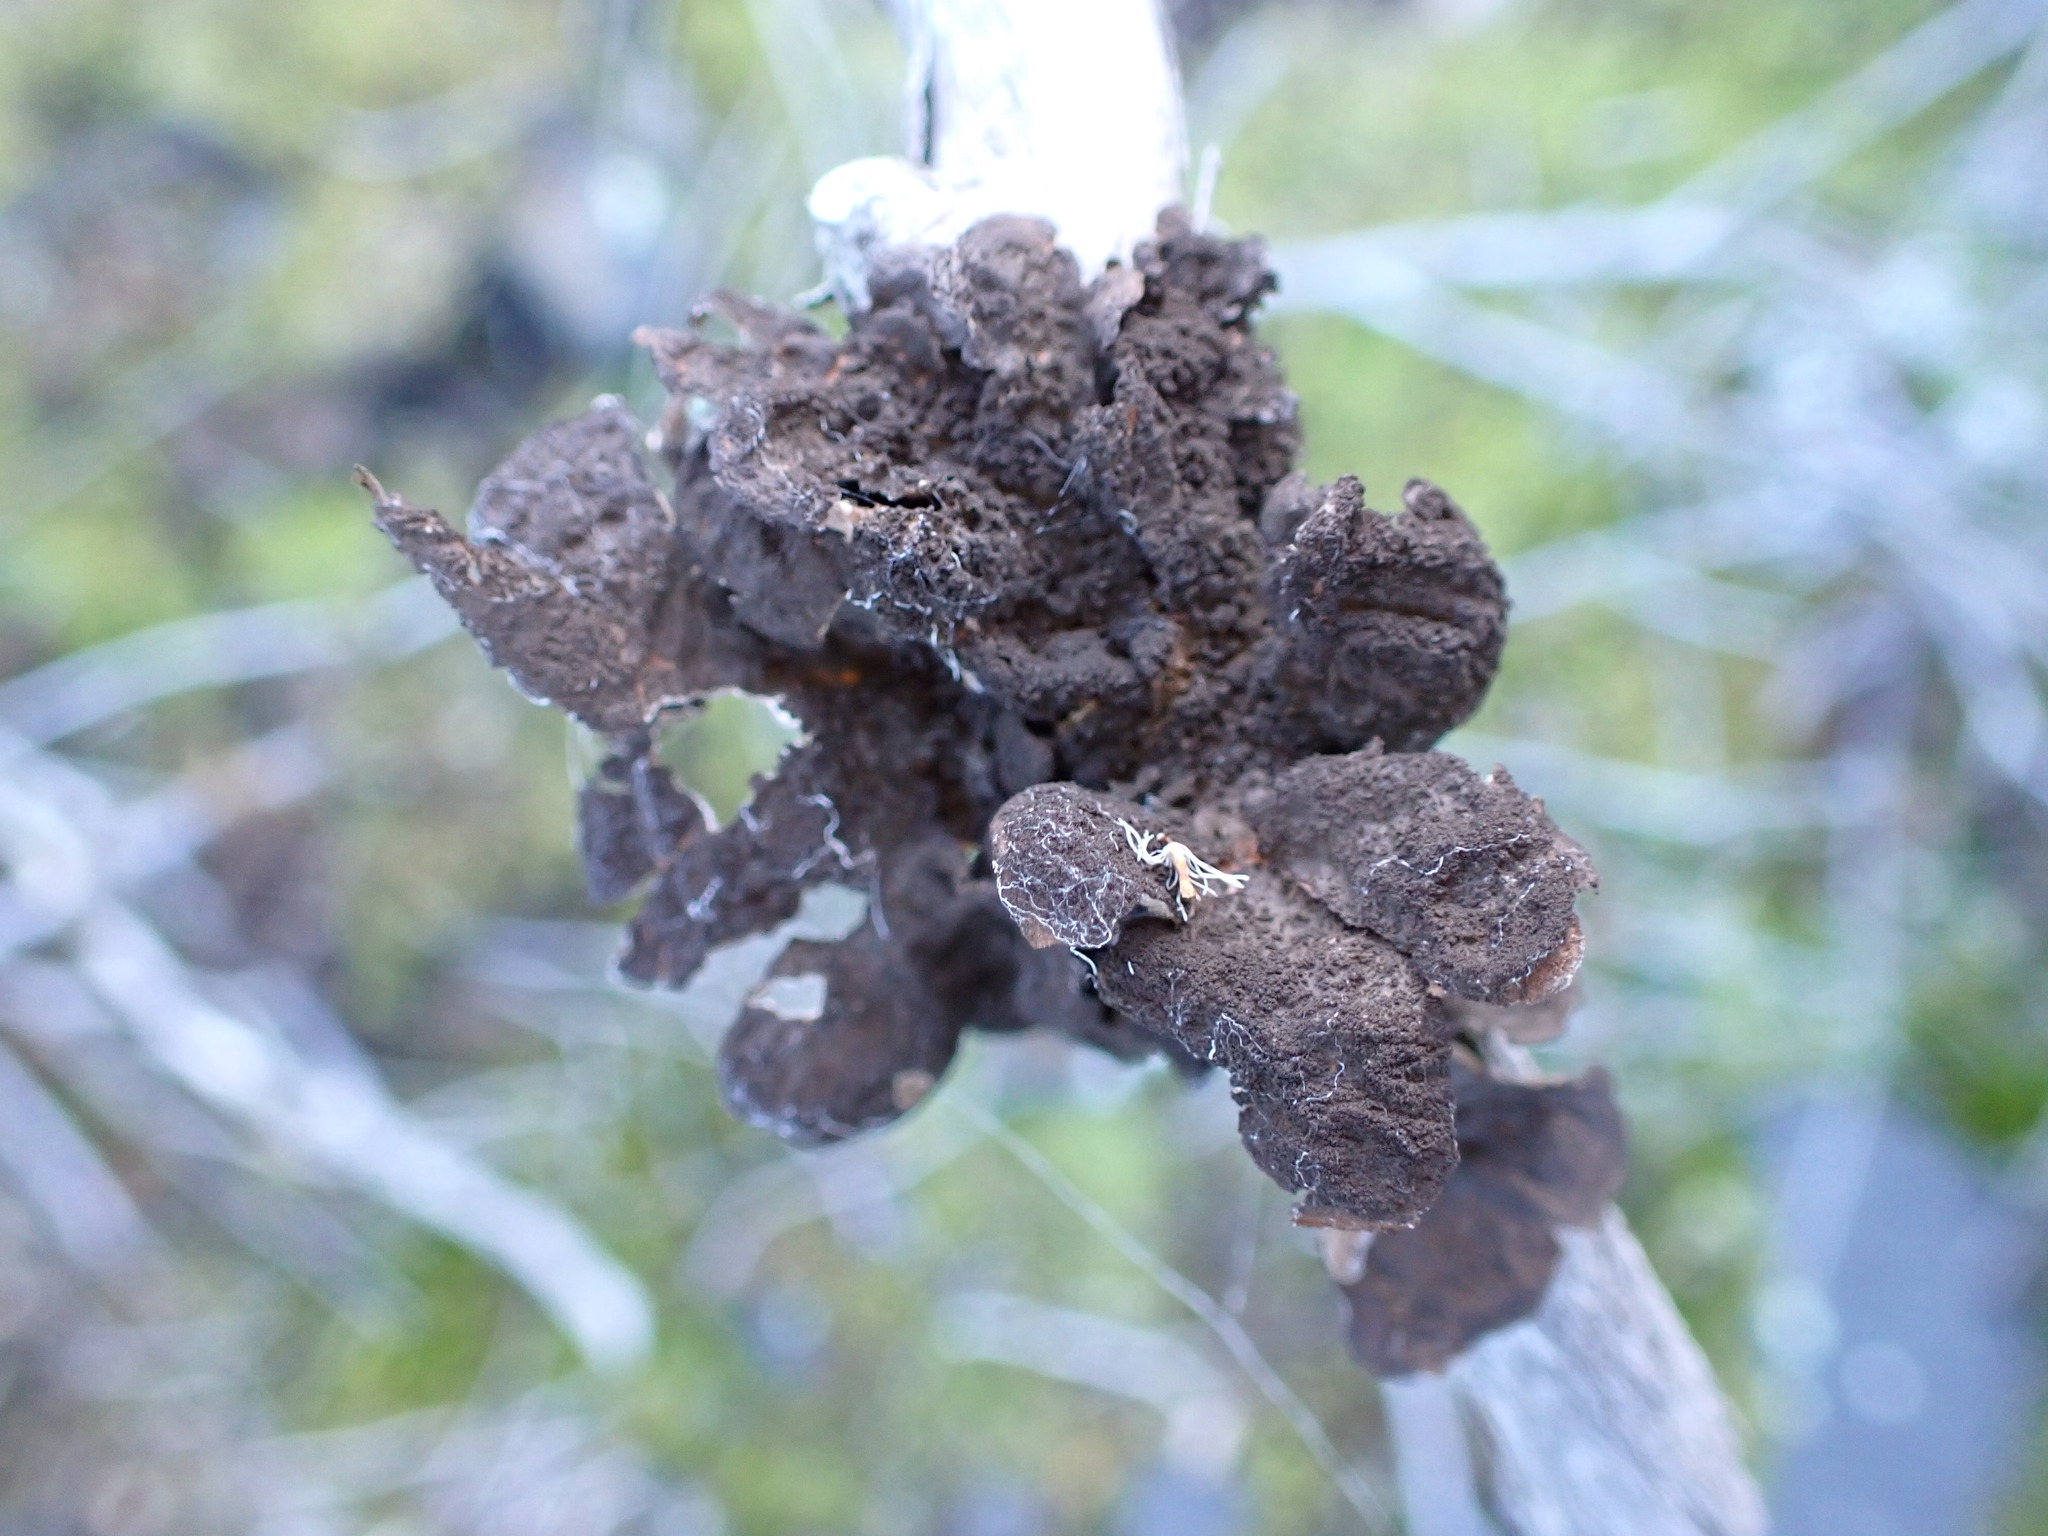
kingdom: Fungi
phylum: Ascomycota
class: Lecanoromycetes
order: Peltigerales
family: Lobariaceae
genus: Sticta
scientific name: Sticta fuliginosa
